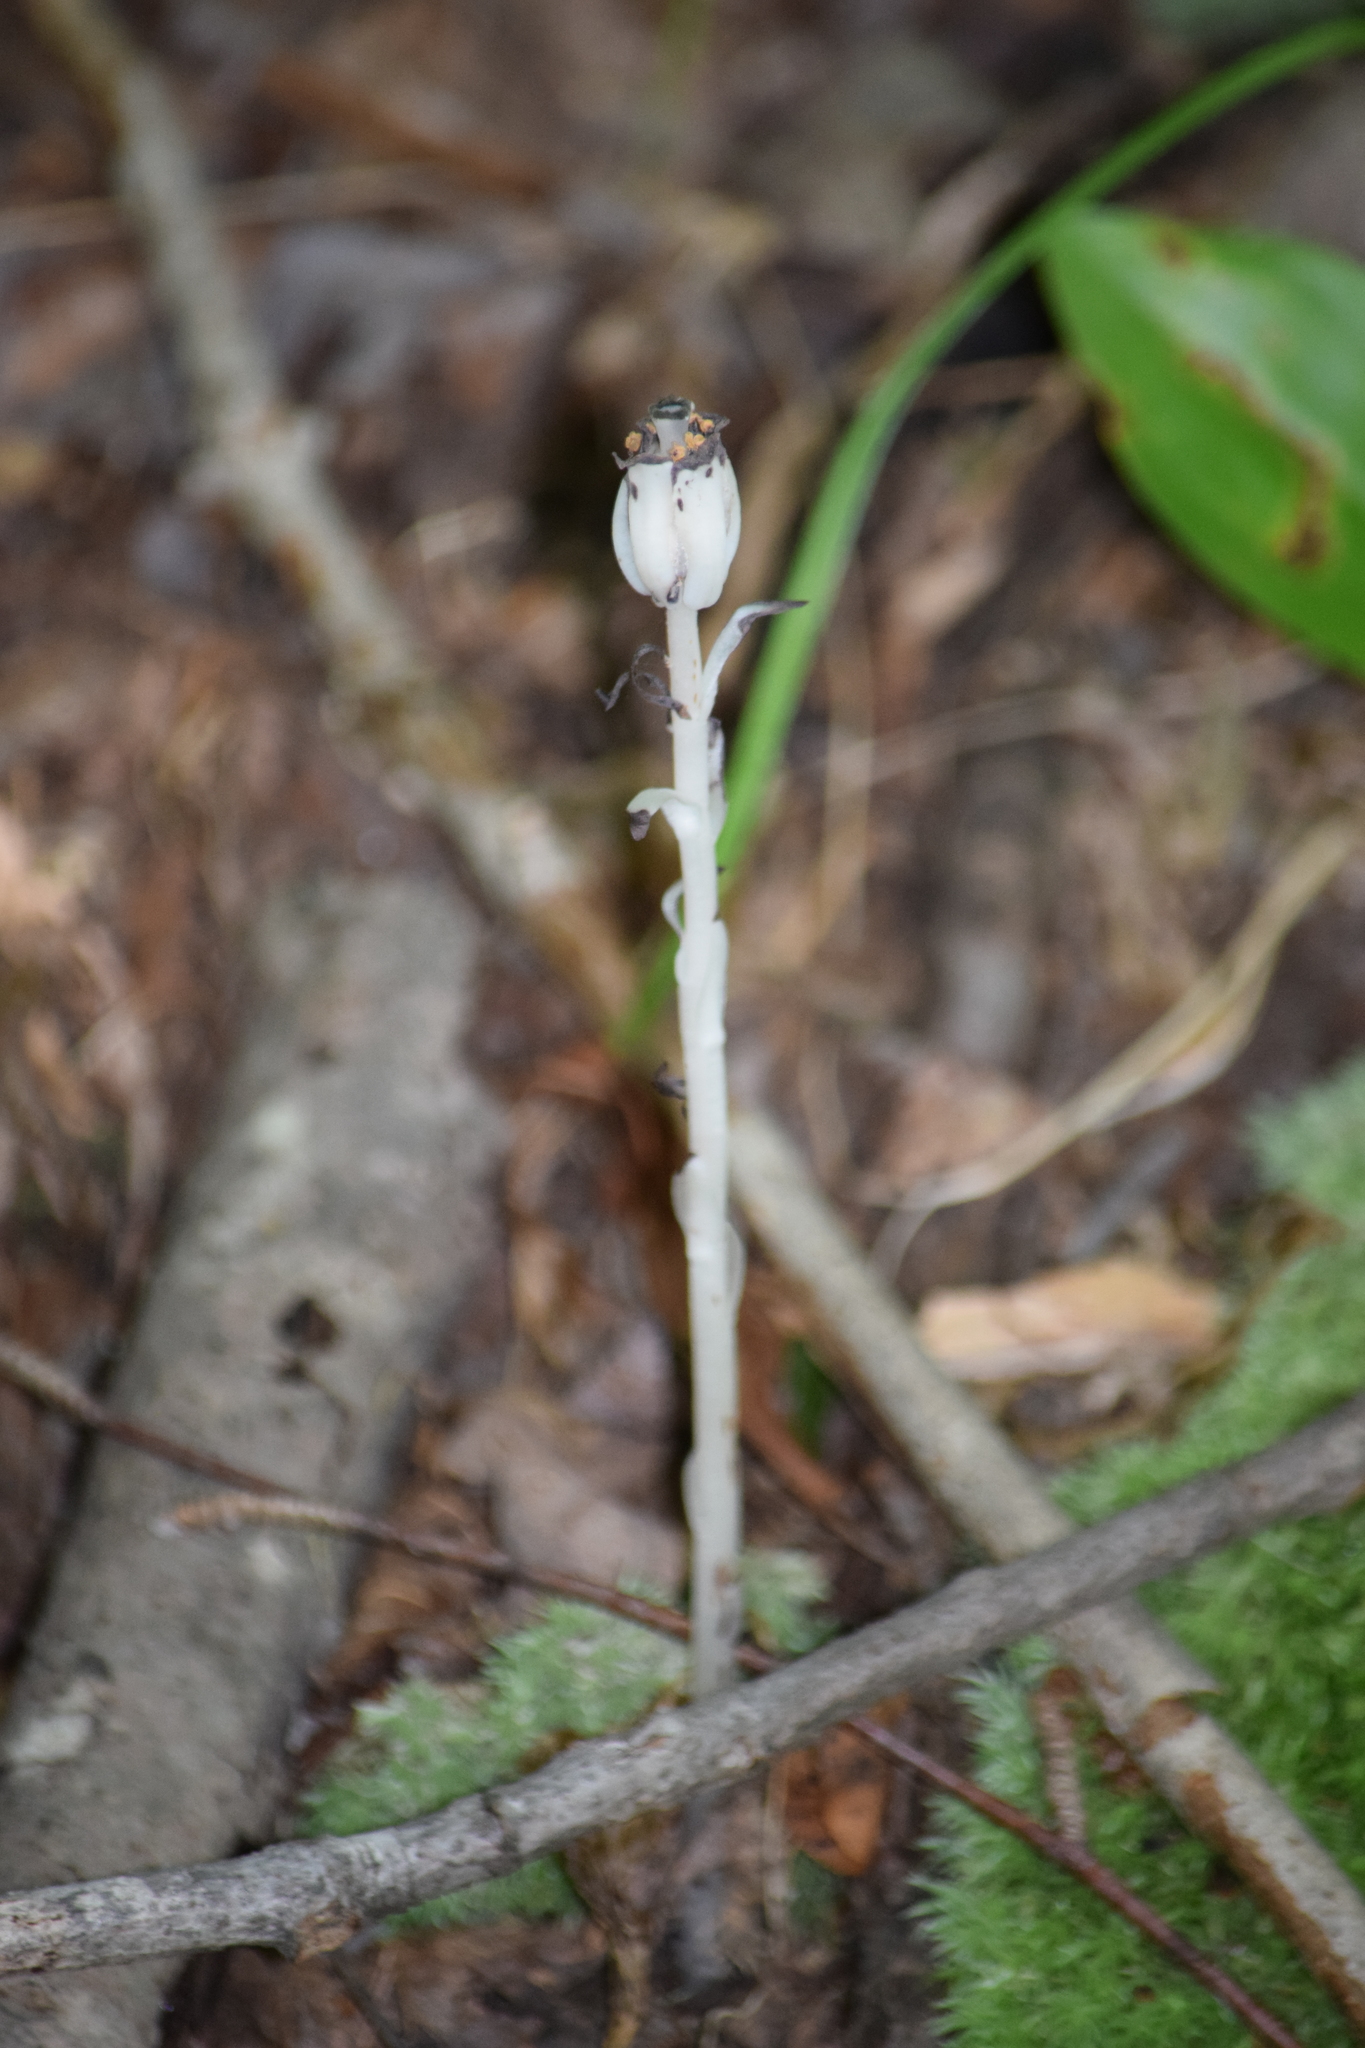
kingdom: Plantae
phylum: Tracheophyta
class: Magnoliopsida
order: Ericales
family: Ericaceae
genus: Monotropa
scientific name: Monotropa uniflora
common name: Convulsion root
